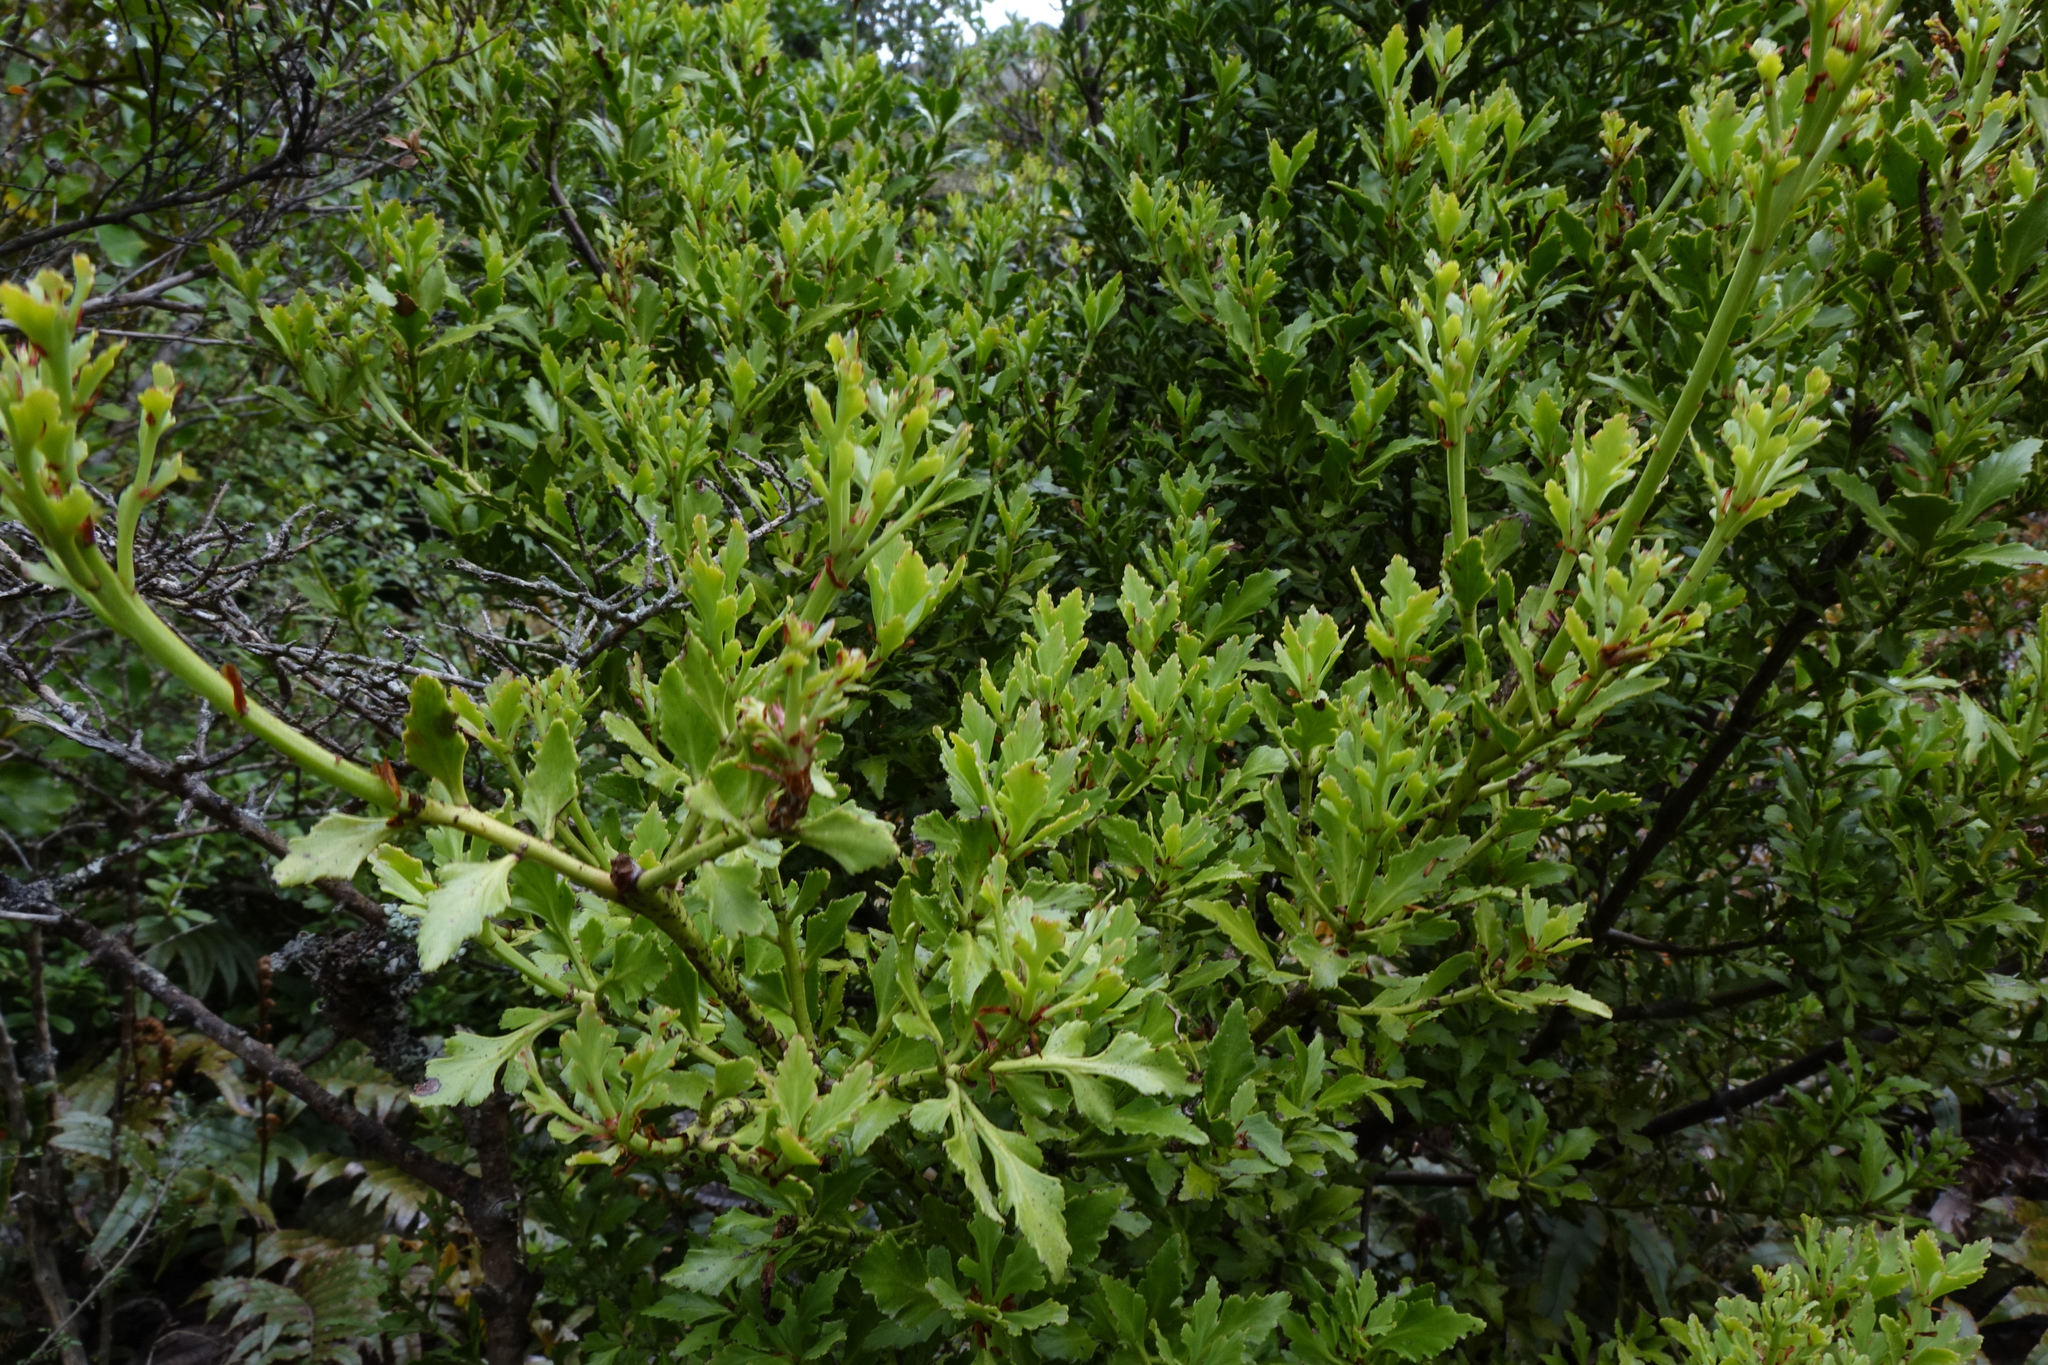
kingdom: Plantae
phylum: Tracheophyta
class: Pinopsida
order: Pinales
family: Phyllocladaceae
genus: Phyllocladus
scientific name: Phyllocladus trichomanoides
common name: Celery pine
